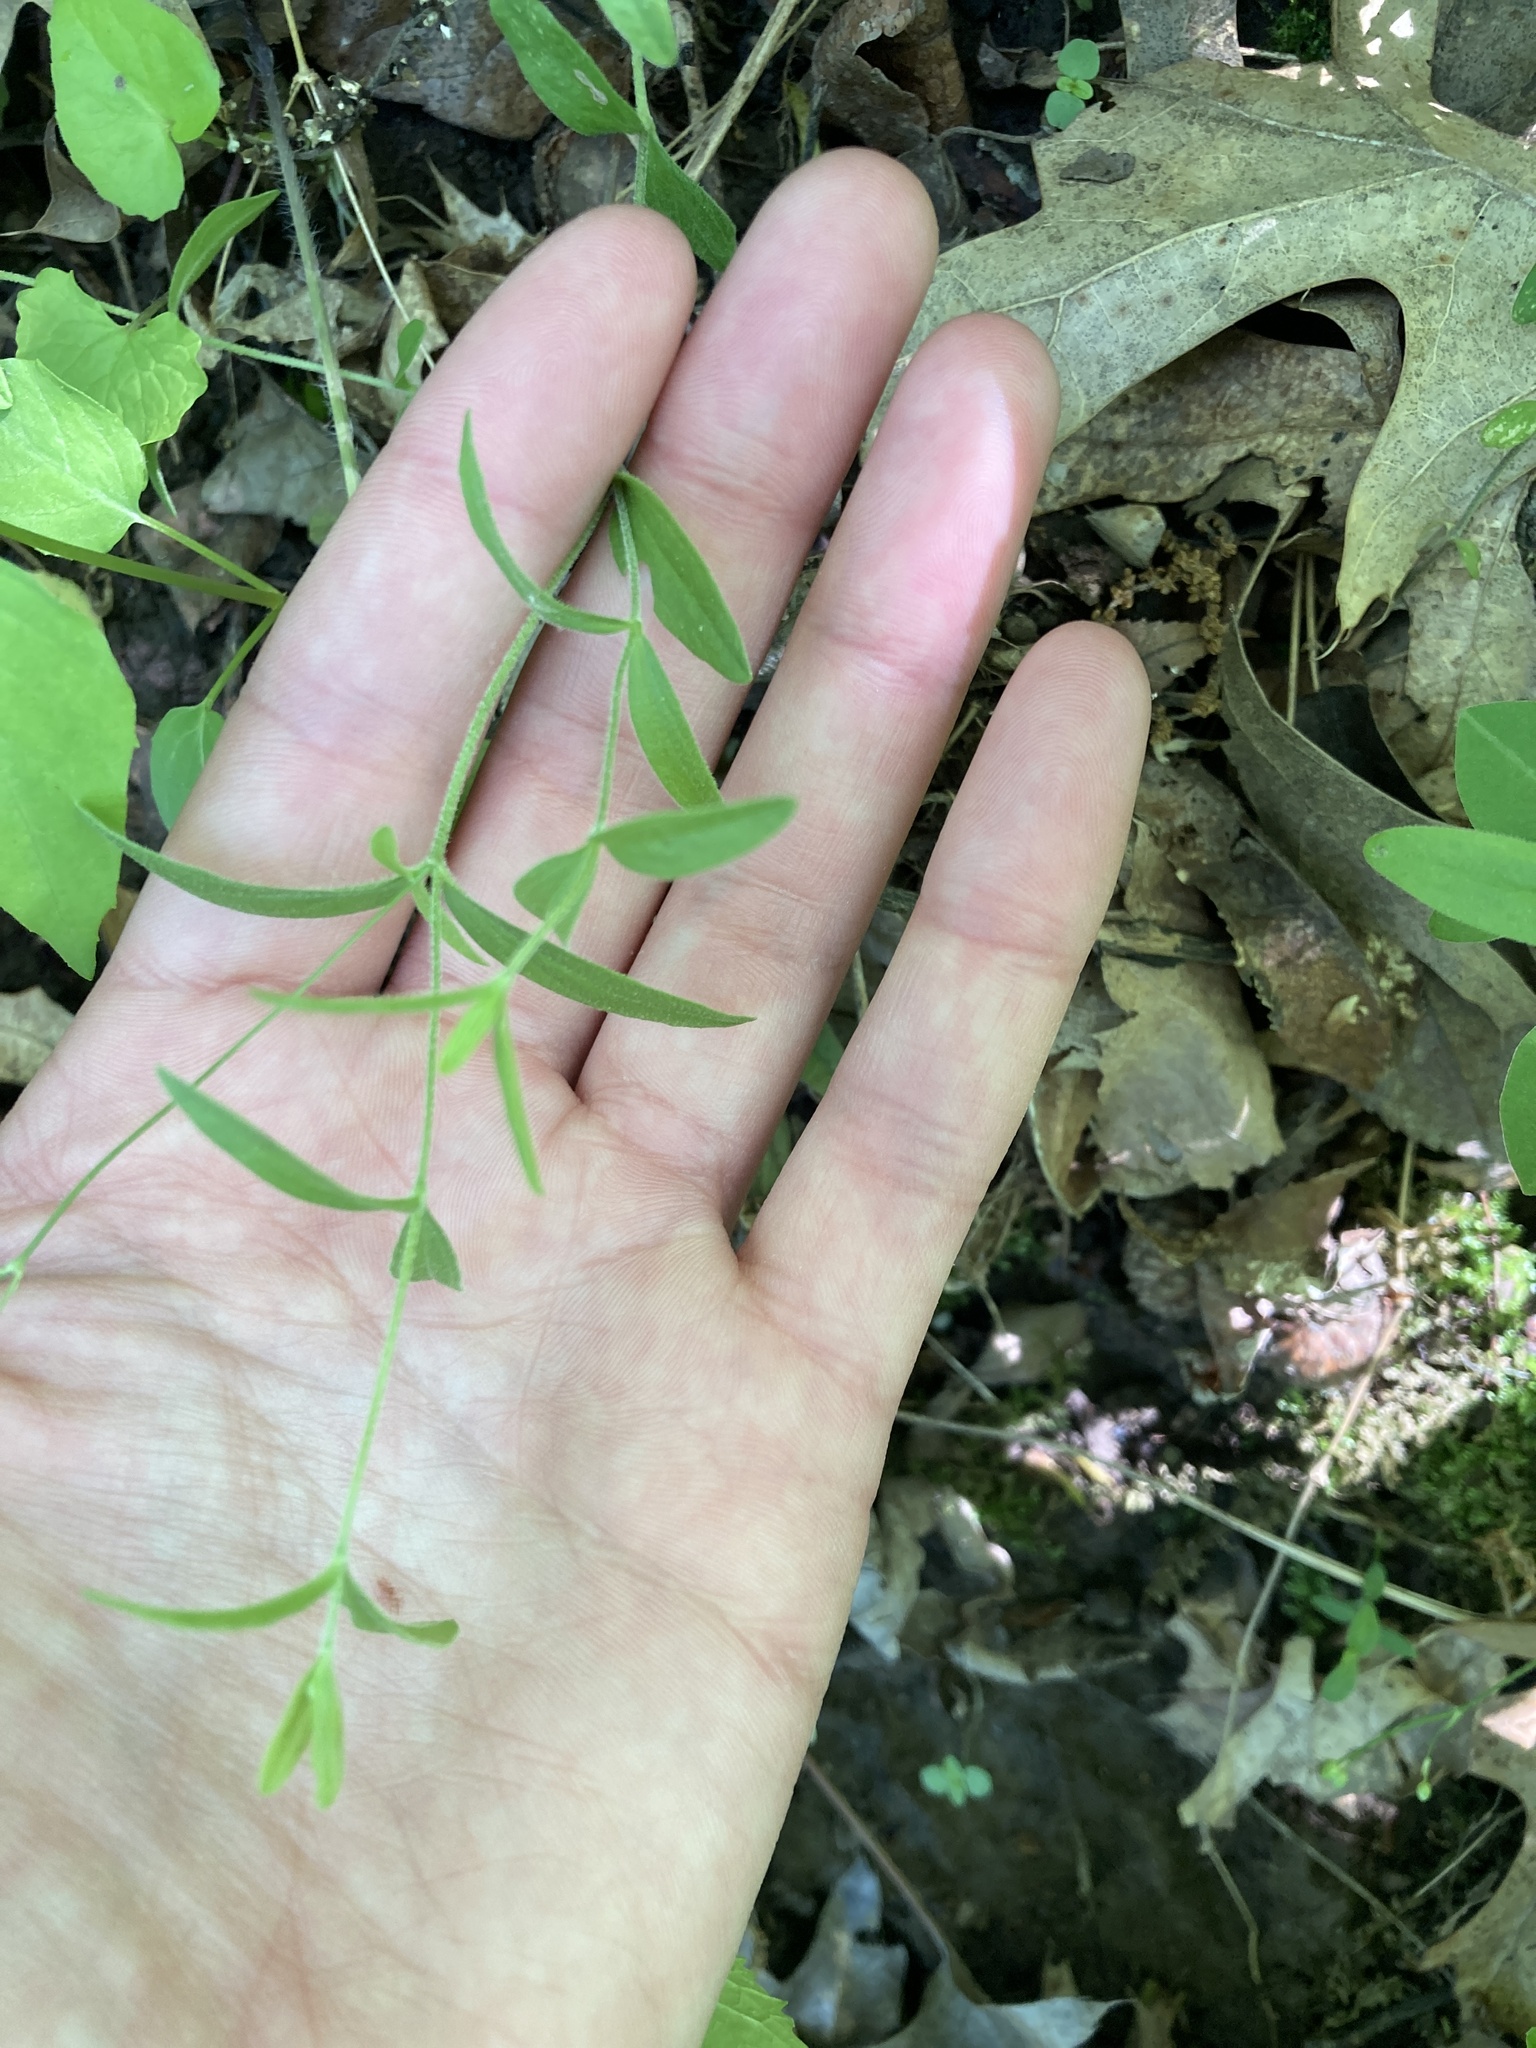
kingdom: Plantae
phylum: Tracheophyta
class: Magnoliopsida
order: Caryophyllales
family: Caryophyllaceae
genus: Moehringia
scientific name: Moehringia lateriflora
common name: Blunt-leaved sandwort
